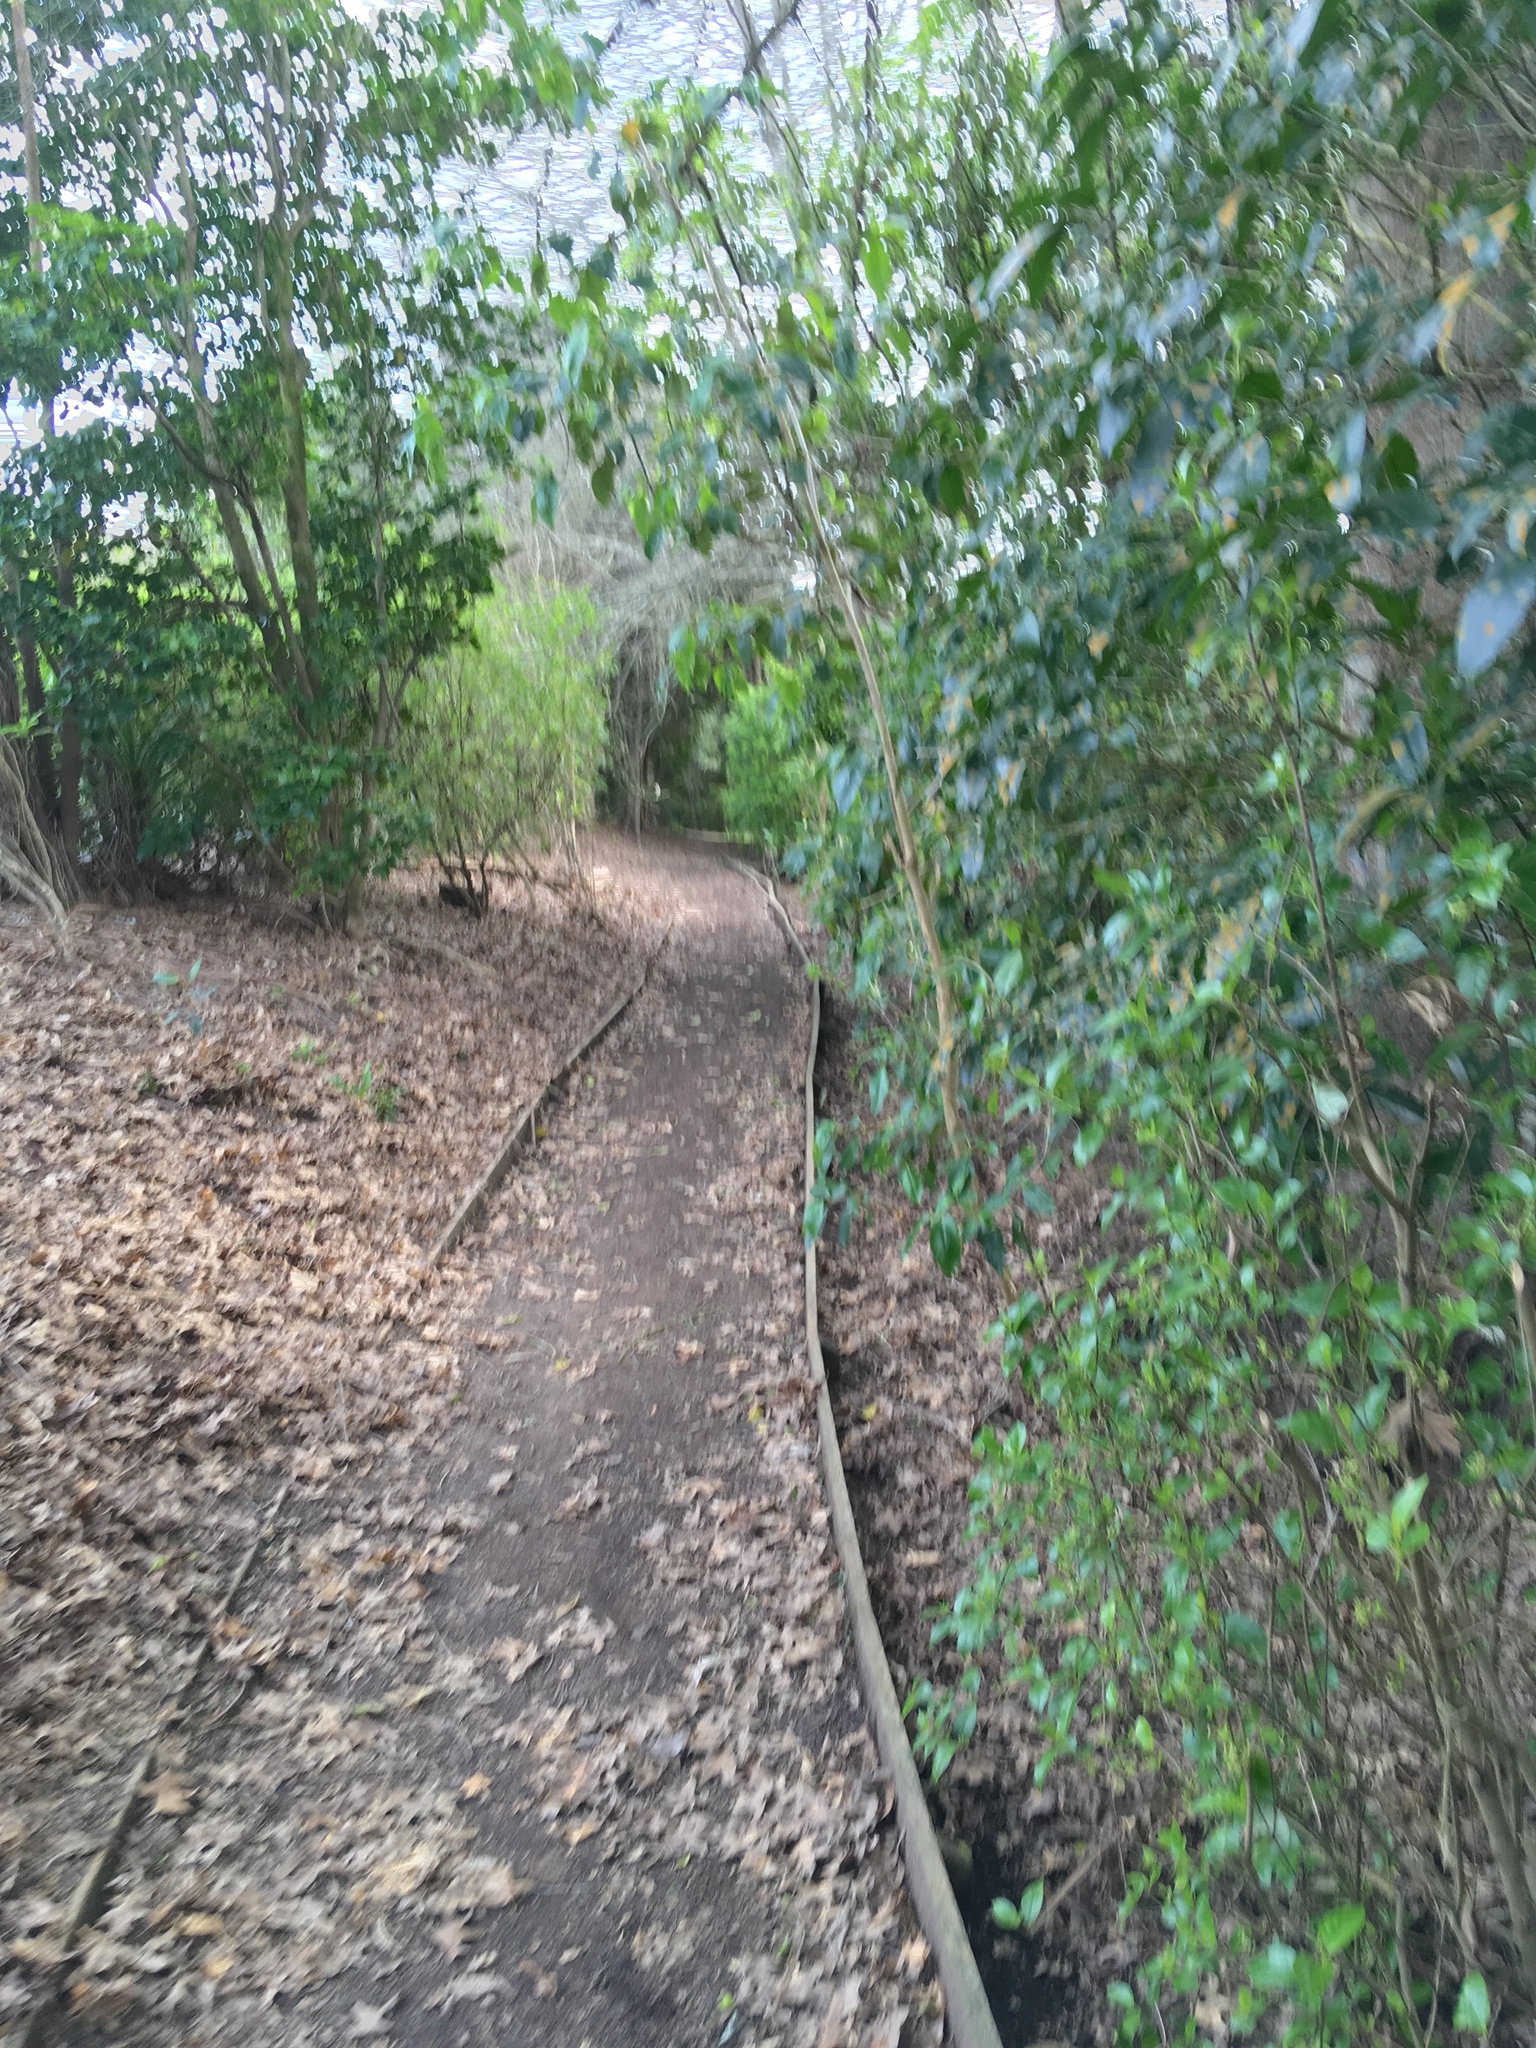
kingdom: Plantae
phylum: Tracheophyta
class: Magnoliopsida
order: Malpighiales
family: Violaceae
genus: Melicytus
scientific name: Melicytus ramiflorus
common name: Mahoe
